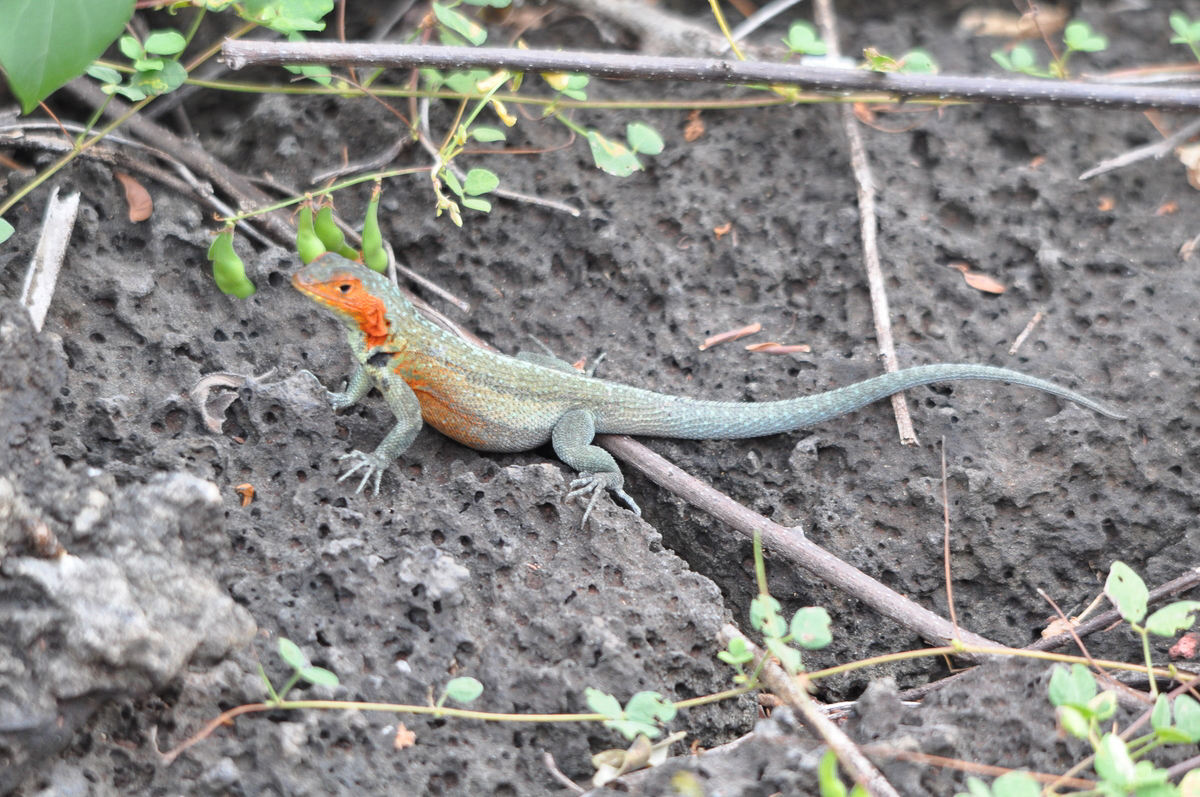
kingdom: Animalia
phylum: Chordata
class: Squamata
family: Tropiduridae
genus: Microlophus
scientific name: Microlophus indefatigabilis
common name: Galapagos lava lizard
